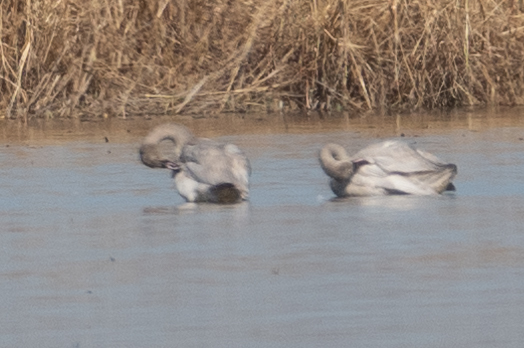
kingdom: Animalia
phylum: Chordata
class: Aves
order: Anseriformes
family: Anatidae
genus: Cygnus
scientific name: Cygnus columbianus
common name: Tundra swan
